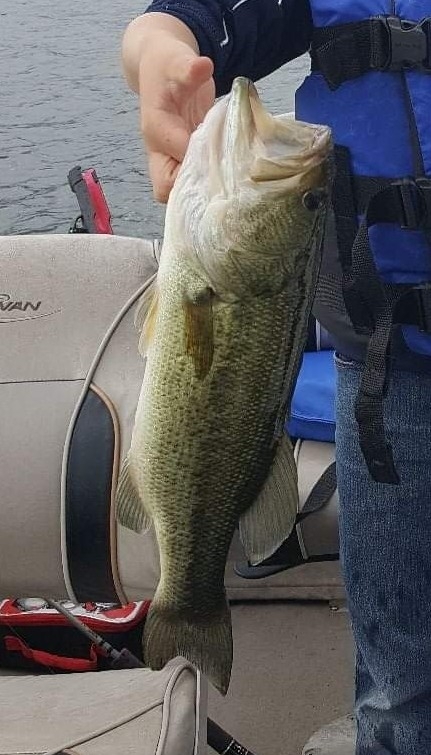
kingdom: Animalia
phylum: Chordata
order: Perciformes
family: Centrarchidae
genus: Micropterus
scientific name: Micropterus
